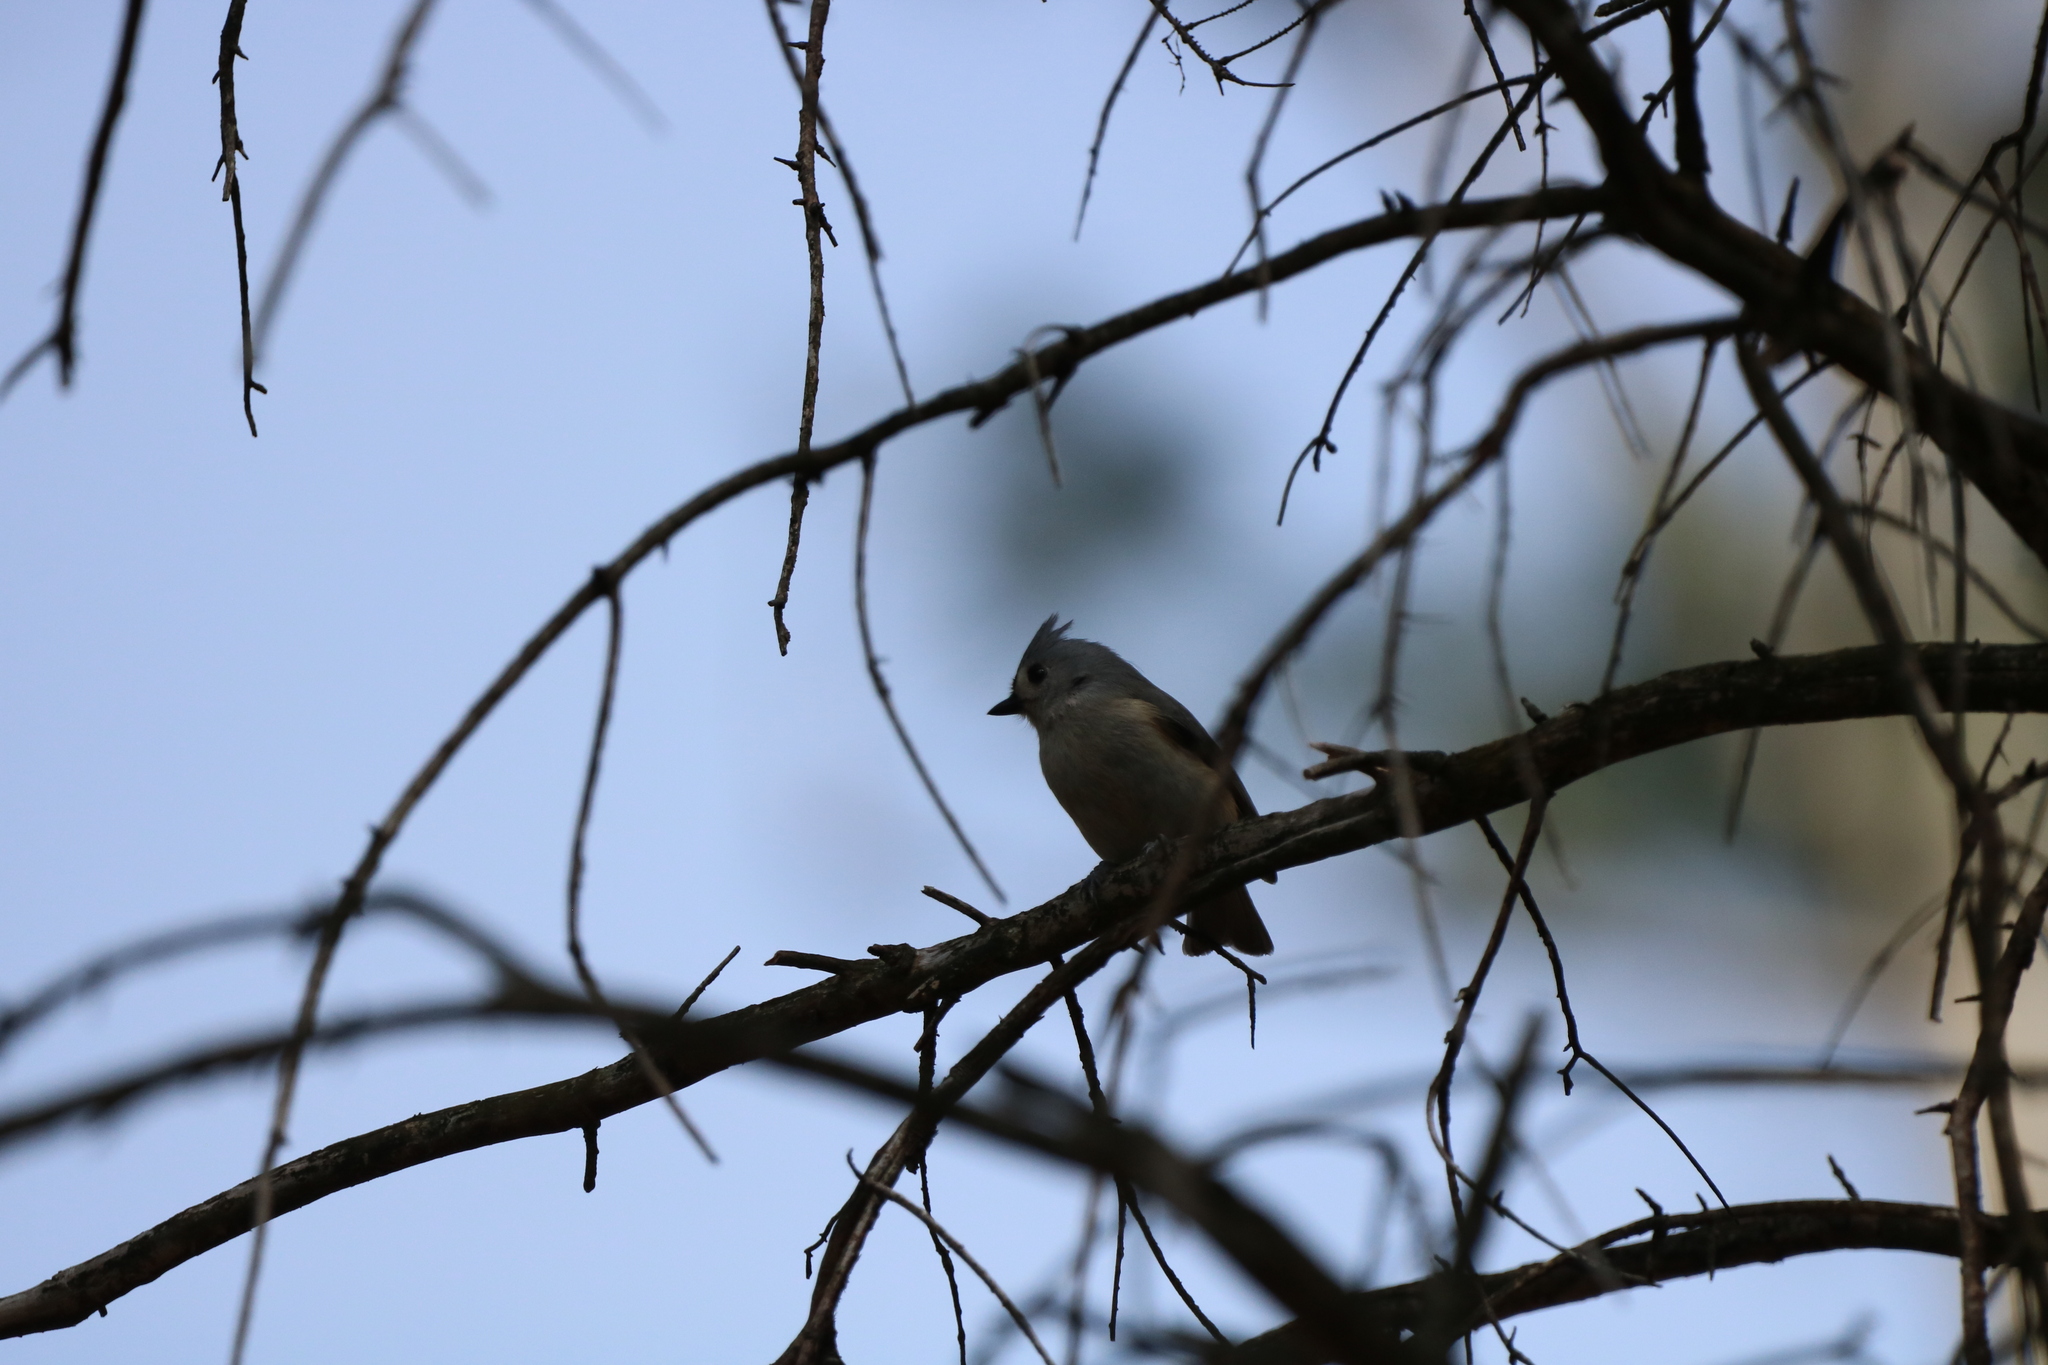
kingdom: Animalia
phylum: Chordata
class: Aves
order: Passeriformes
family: Paridae
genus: Baeolophus
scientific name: Baeolophus bicolor
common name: Tufted titmouse
